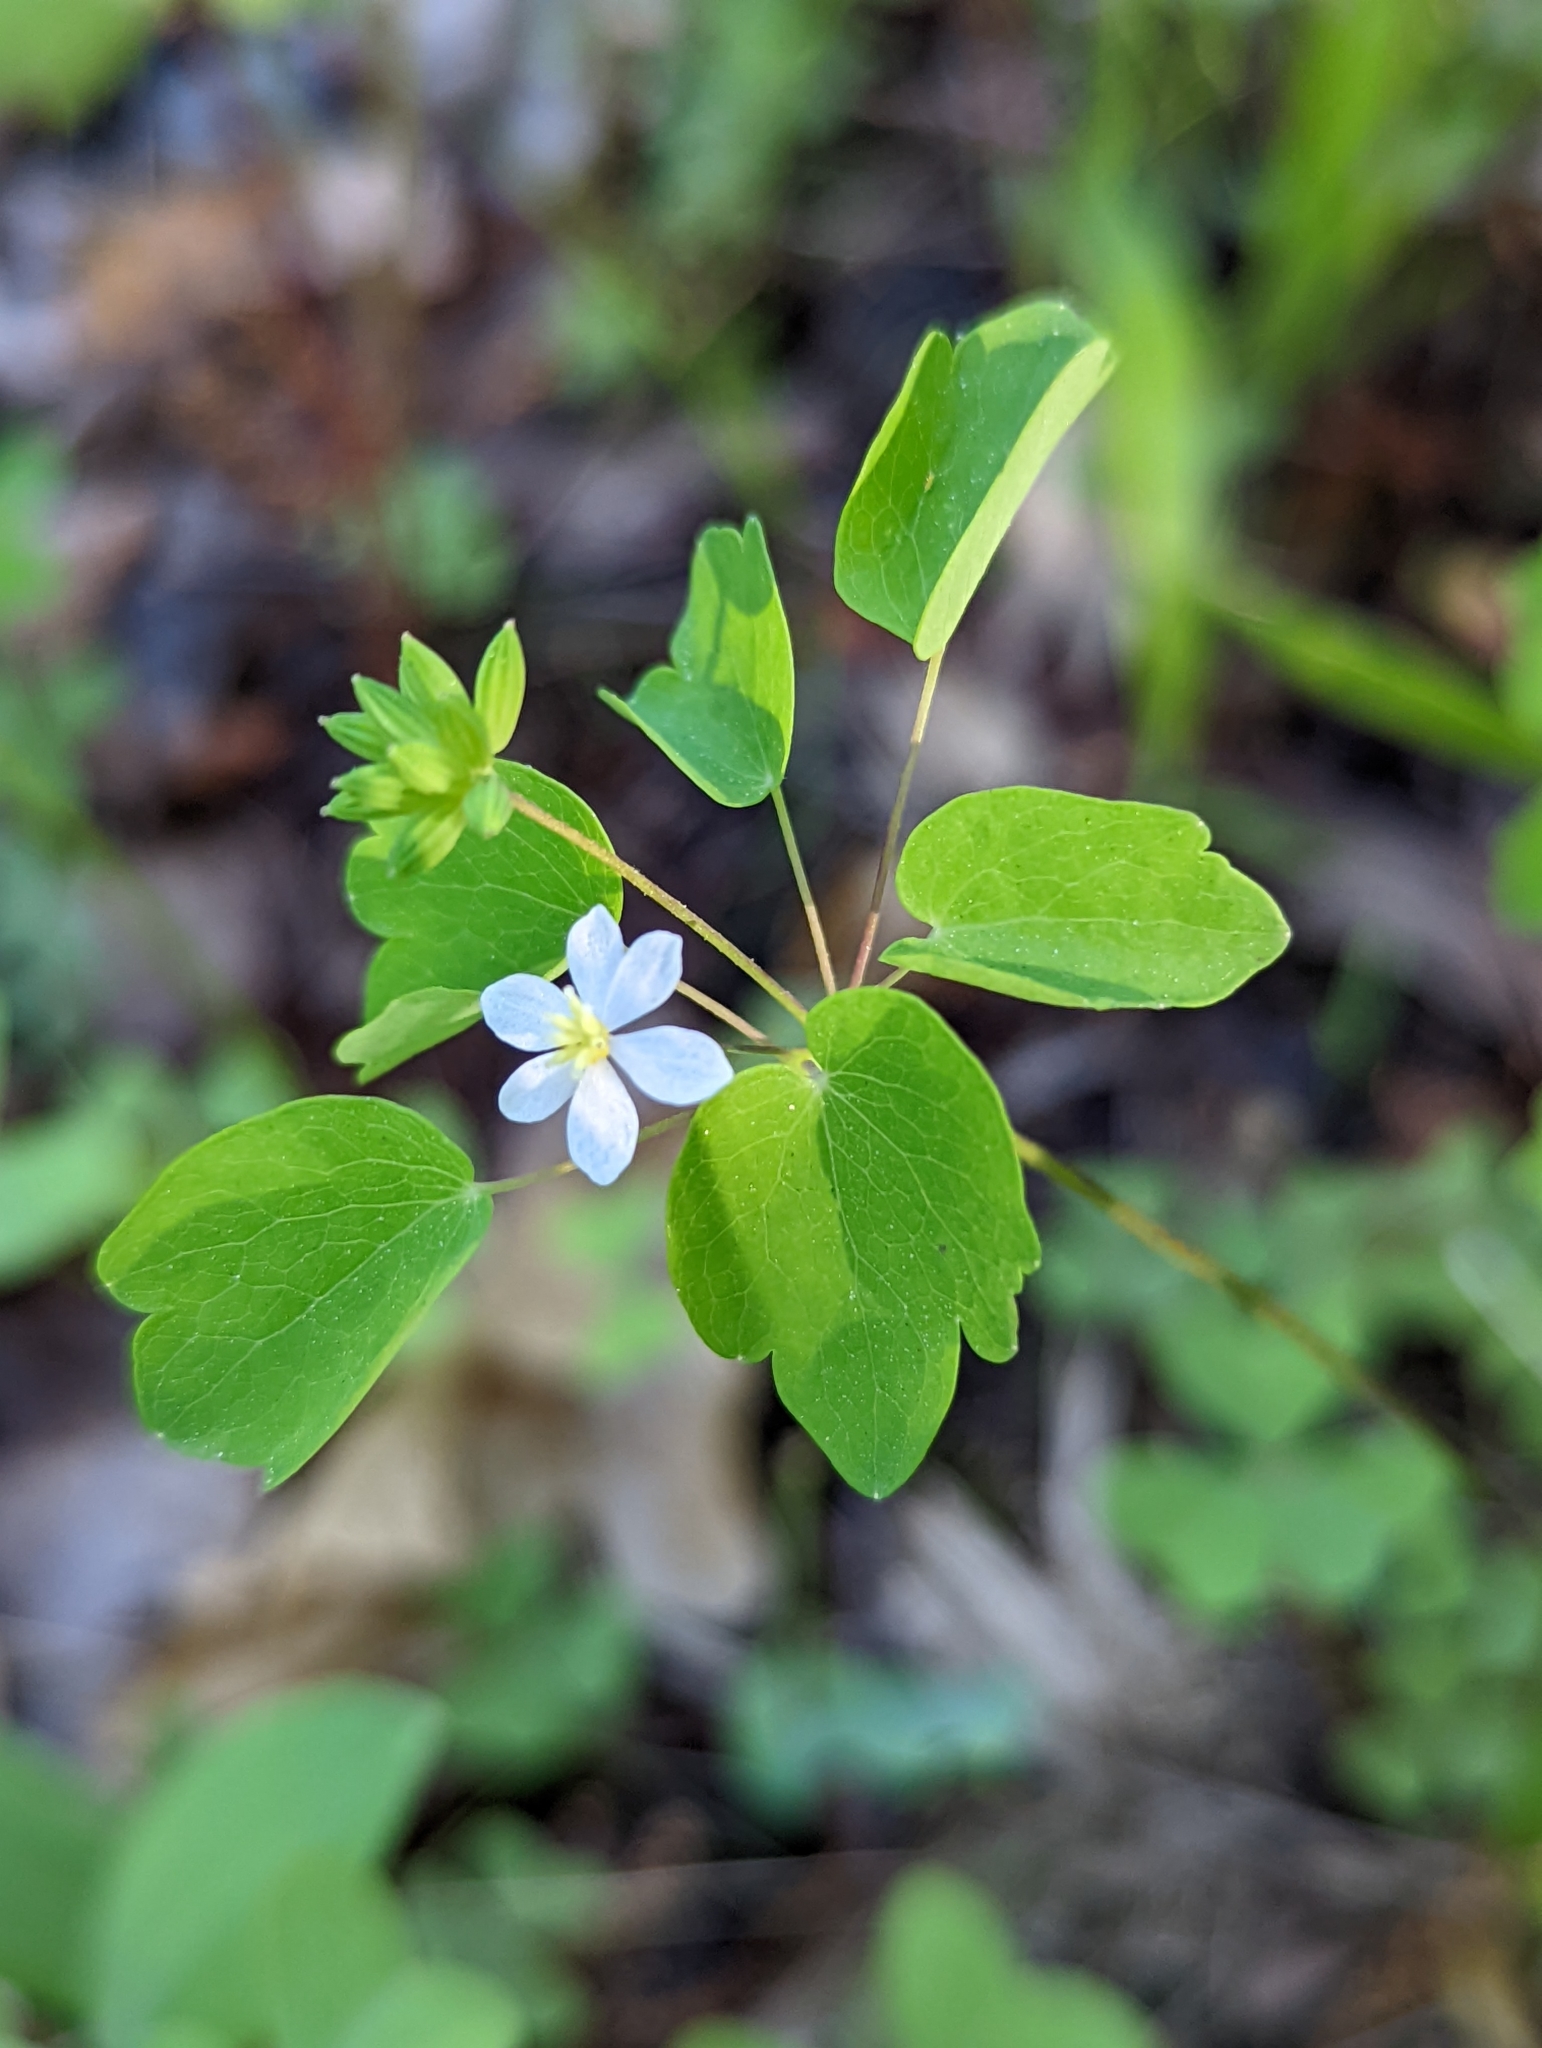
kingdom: Plantae
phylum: Tracheophyta
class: Magnoliopsida
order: Ranunculales
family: Ranunculaceae
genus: Thalictrum
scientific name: Thalictrum thalictroides
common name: Rue-anemone
